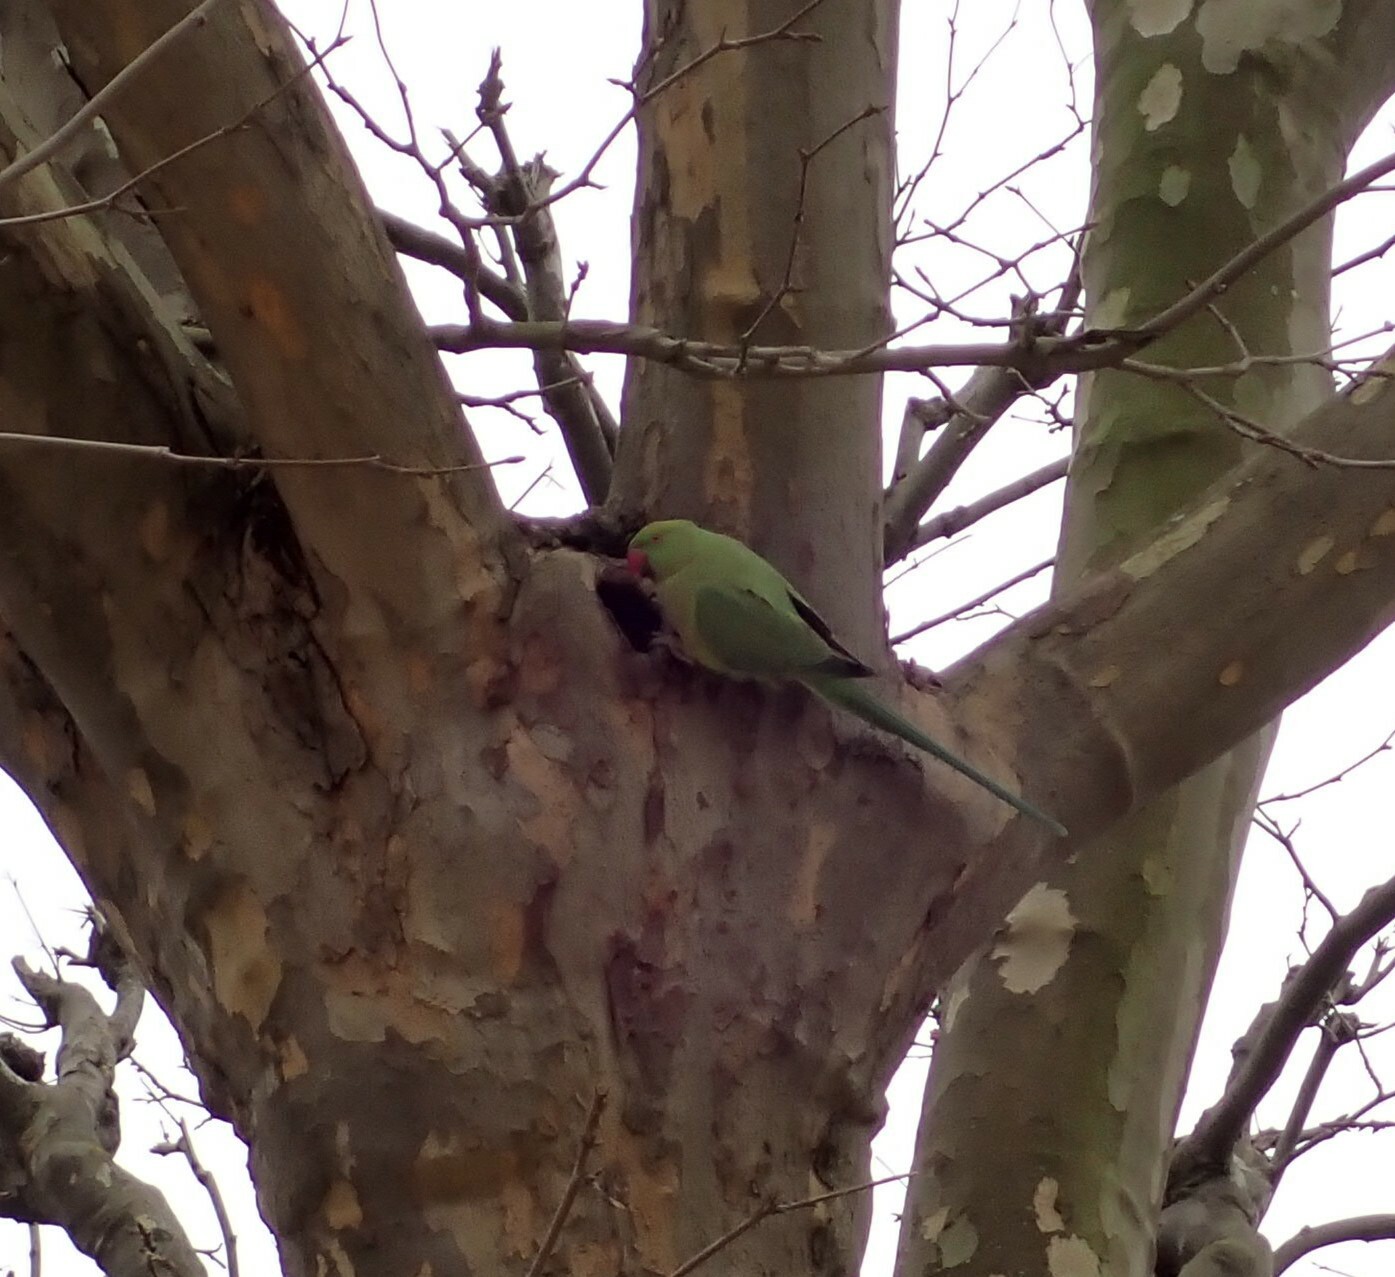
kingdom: Animalia
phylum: Chordata
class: Aves
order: Psittaciformes
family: Psittacidae
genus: Psittacula
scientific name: Psittacula krameri
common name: Rose-ringed parakeet
